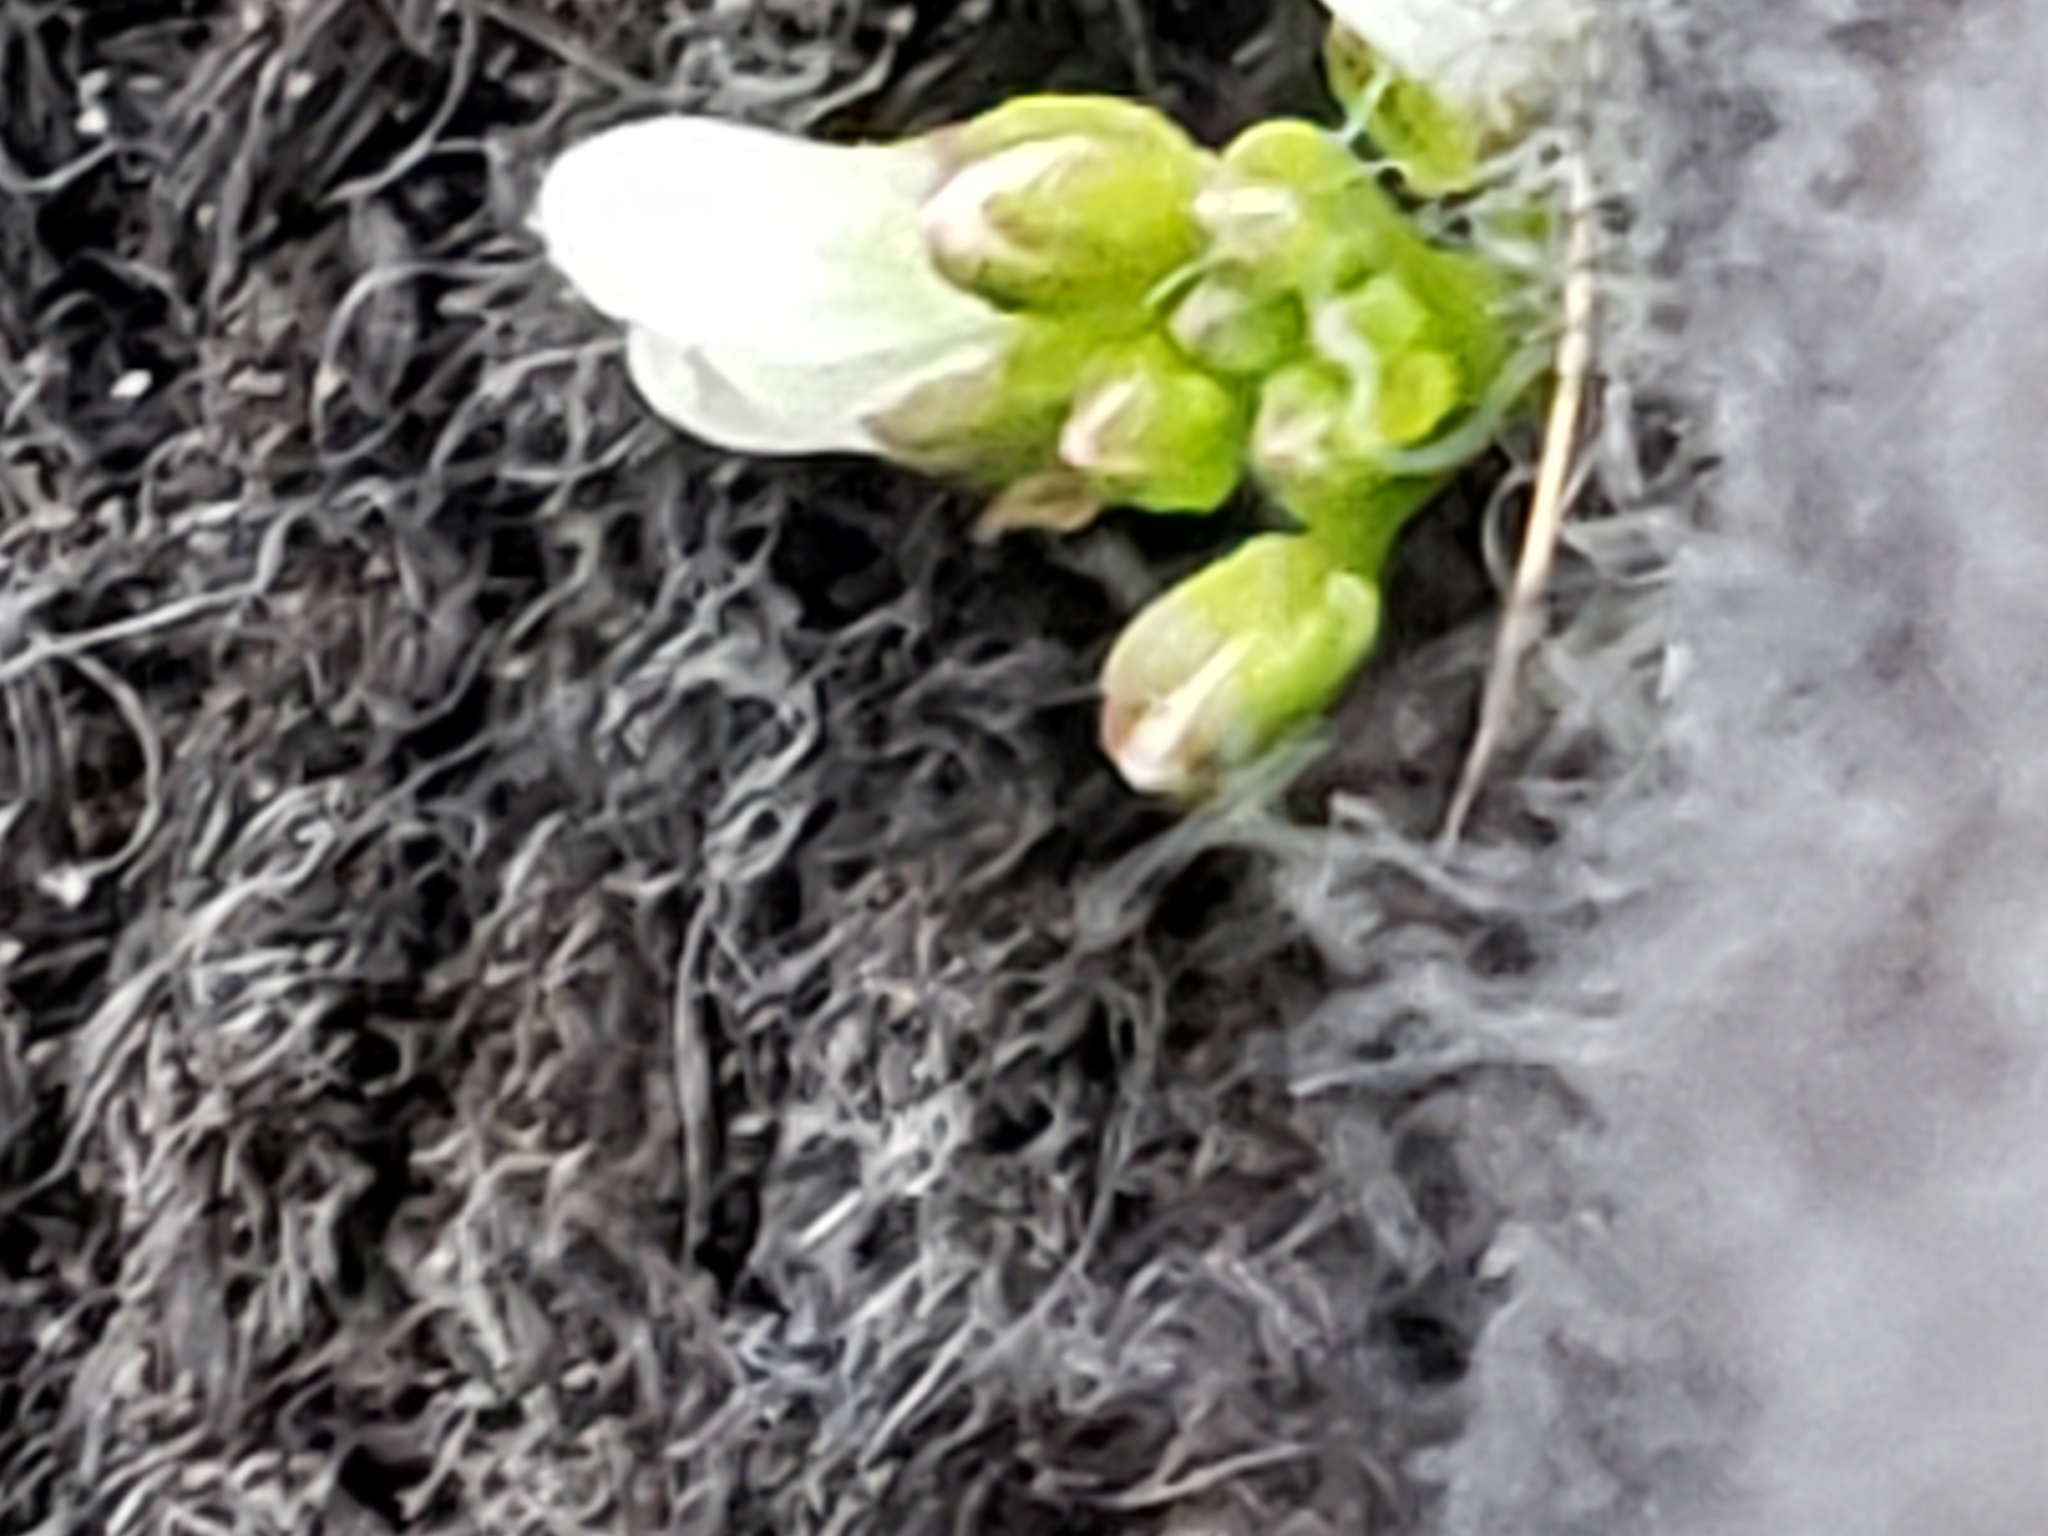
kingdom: Plantae
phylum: Tracheophyta
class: Magnoliopsida
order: Brassicales
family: Brassicaceae
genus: Cardamine
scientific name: Cardamine occulta
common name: Asian wavy bittercress
